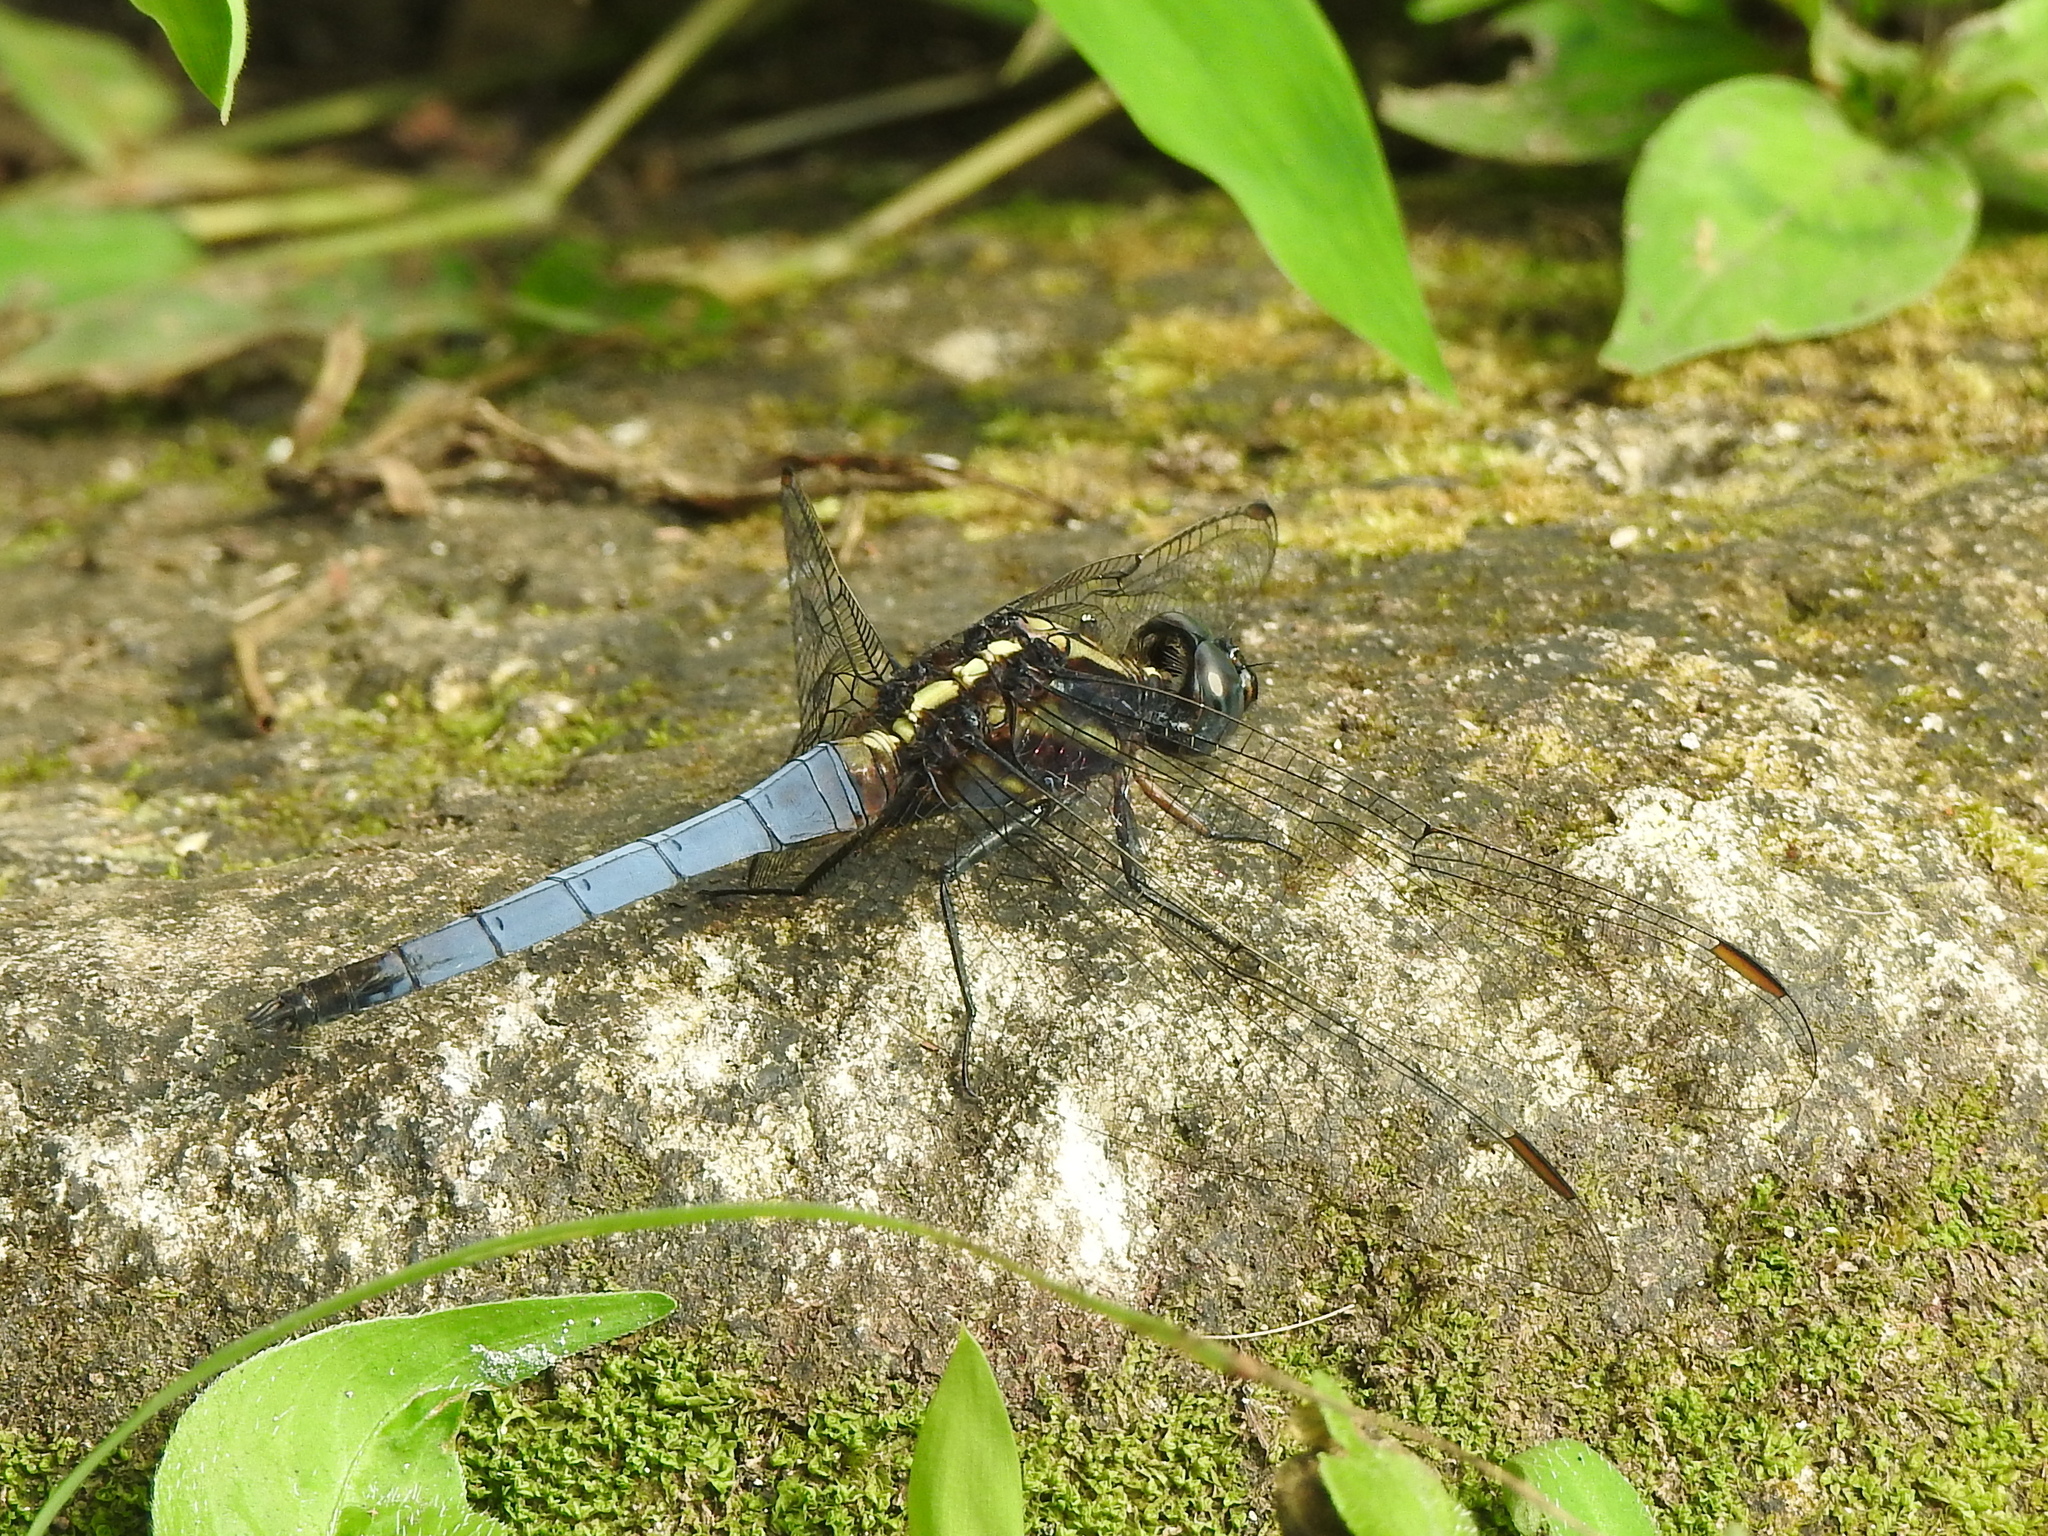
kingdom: Animalia
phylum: Arthropoda
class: Insecta
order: Odonata
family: Libellulidae
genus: Orthetrum
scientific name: Orthetrum glaucum
